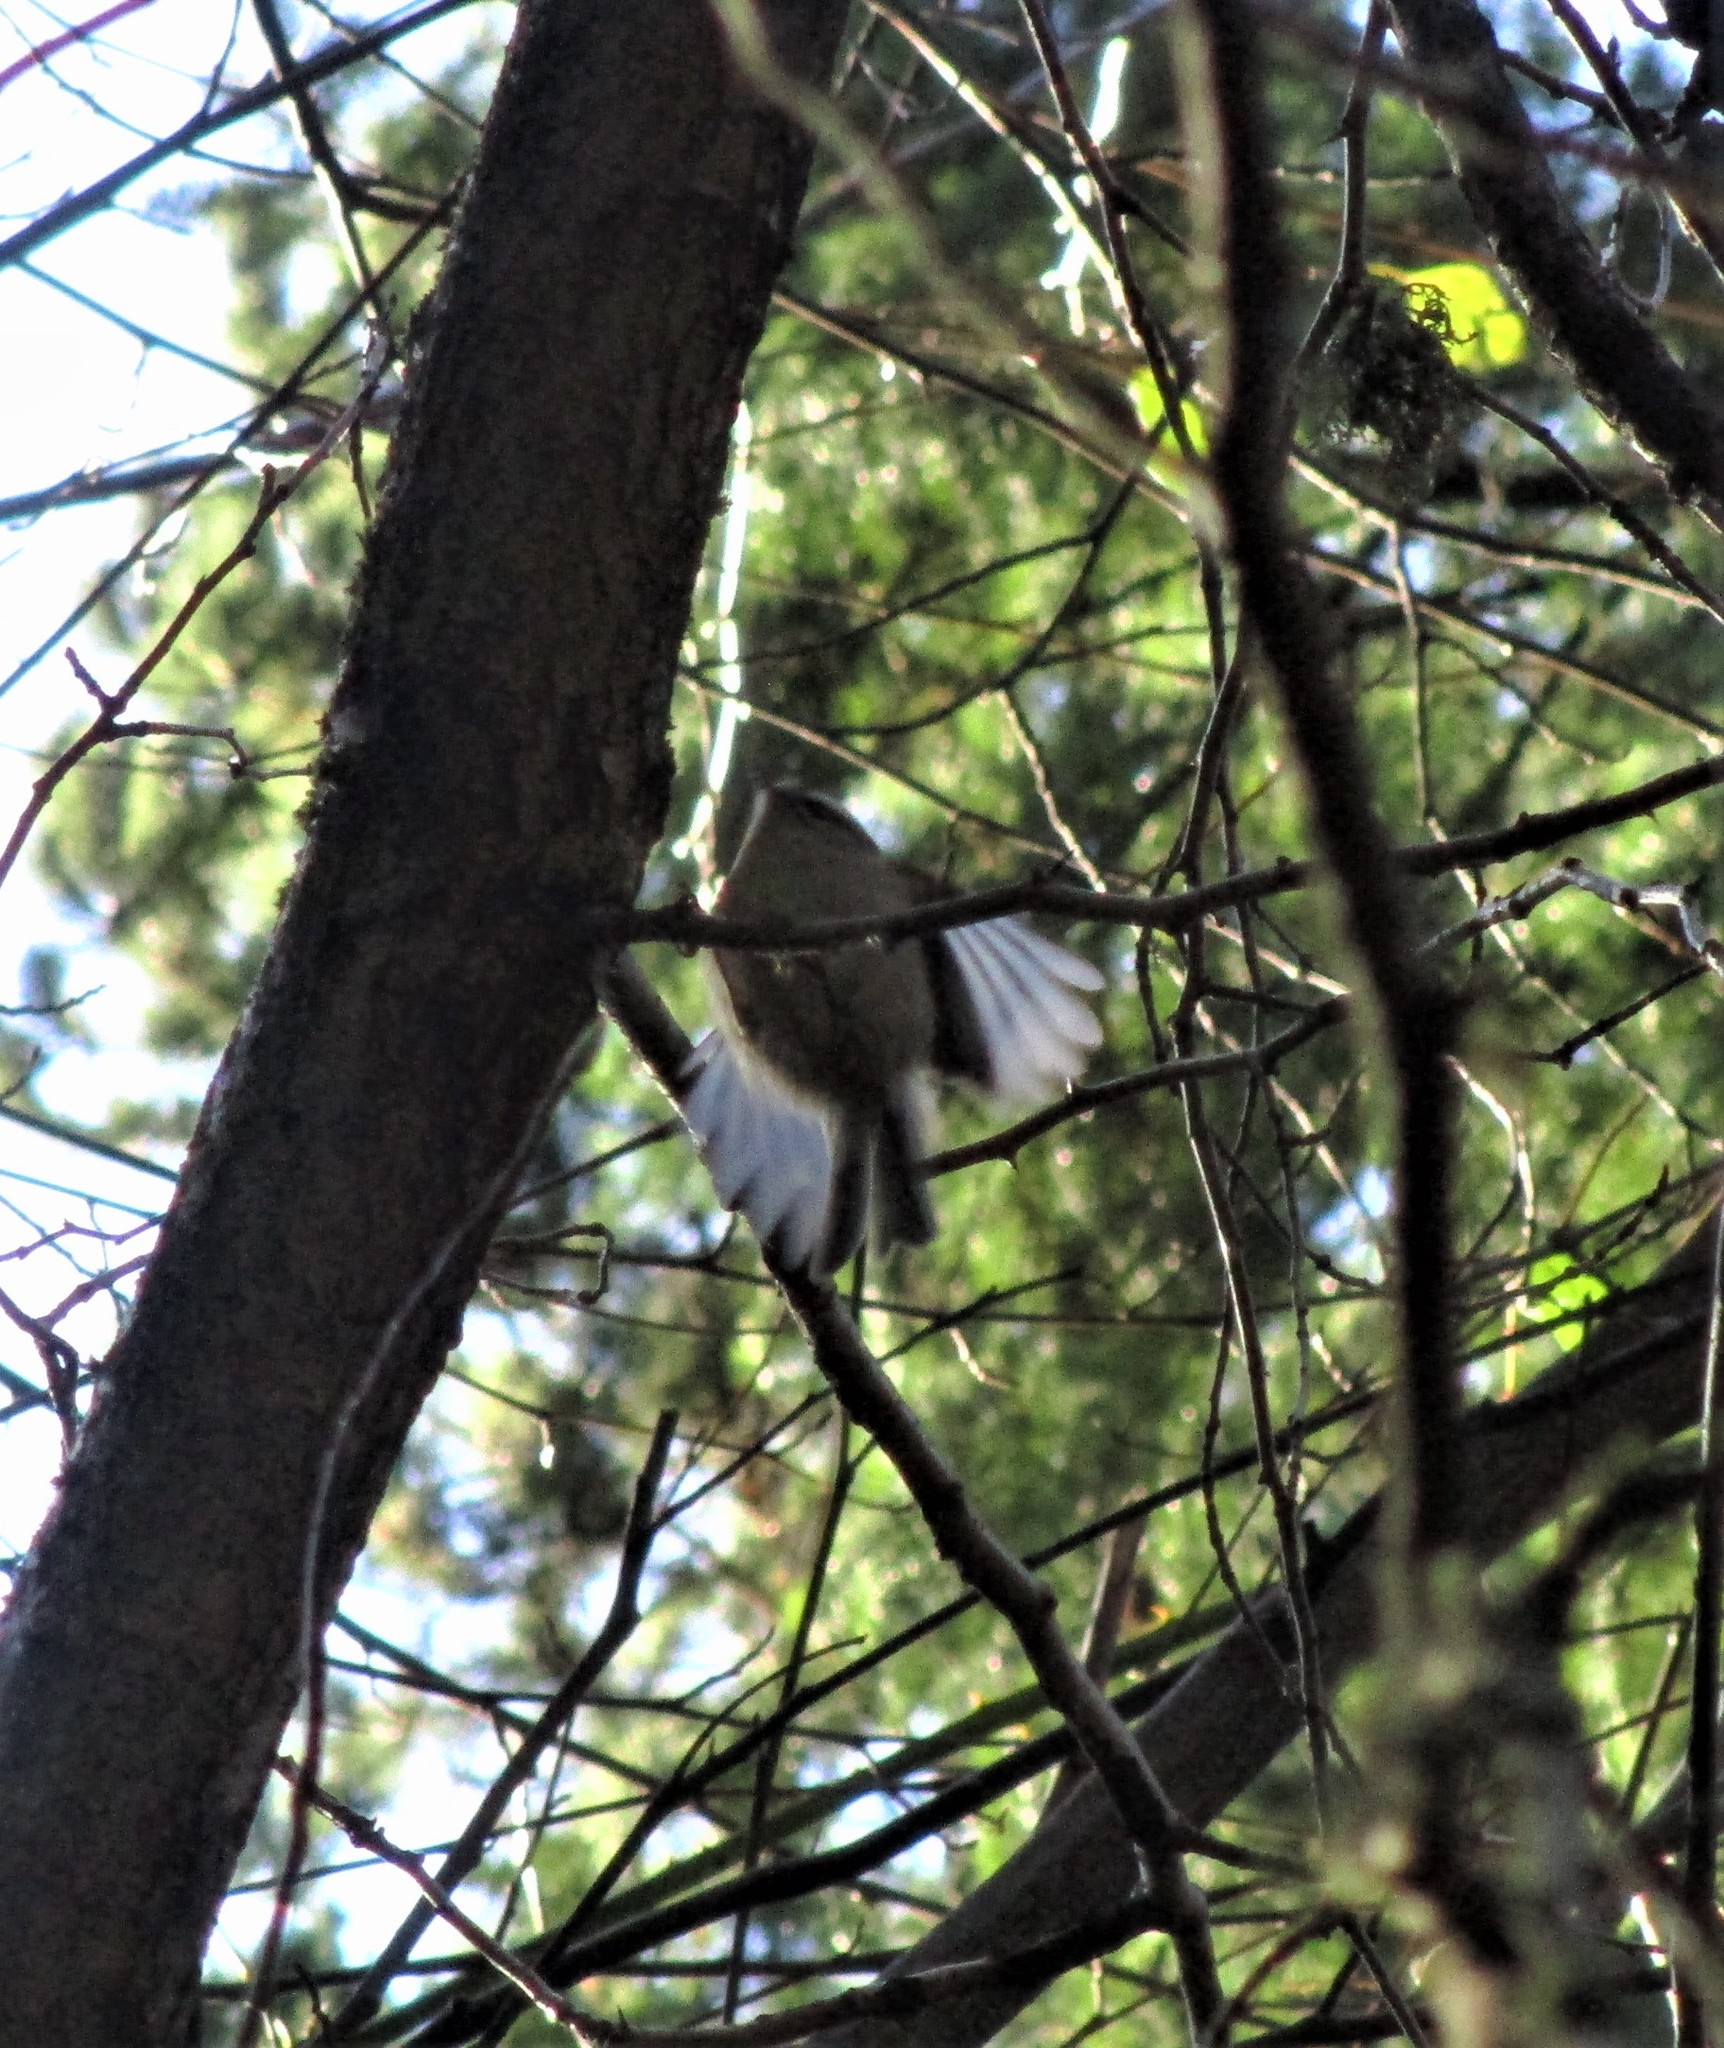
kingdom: Animalia
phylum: Chordata
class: Aves
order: Passeriformes
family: Regulidae
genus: Regulus
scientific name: Regulus satrapa
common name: Golden-crowned kinglet
